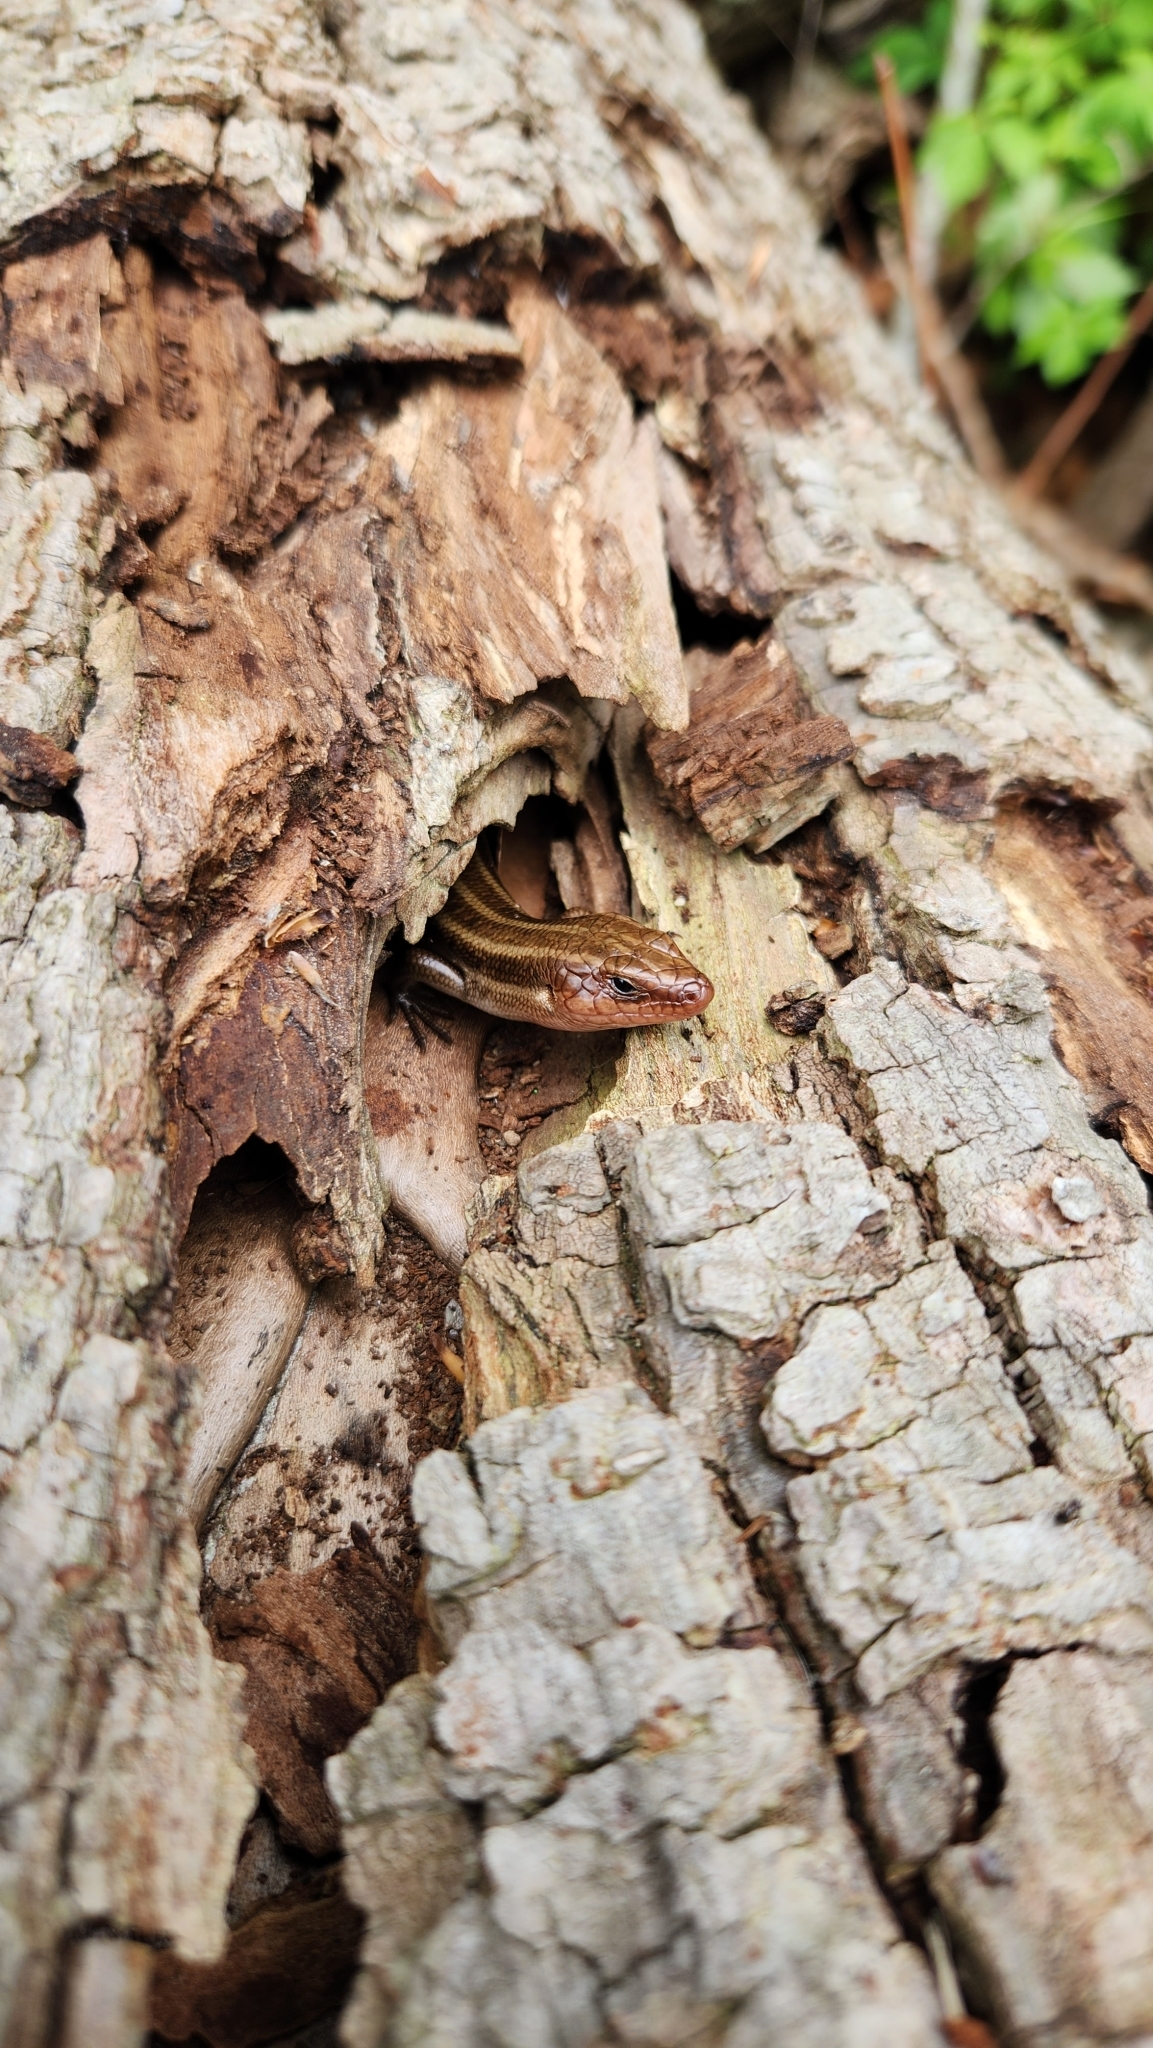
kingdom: Animalia
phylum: Chordata
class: Squamata
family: Scincidae
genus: Plestiodon
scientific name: Plestiodon fasciatus
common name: Five-lined skink
